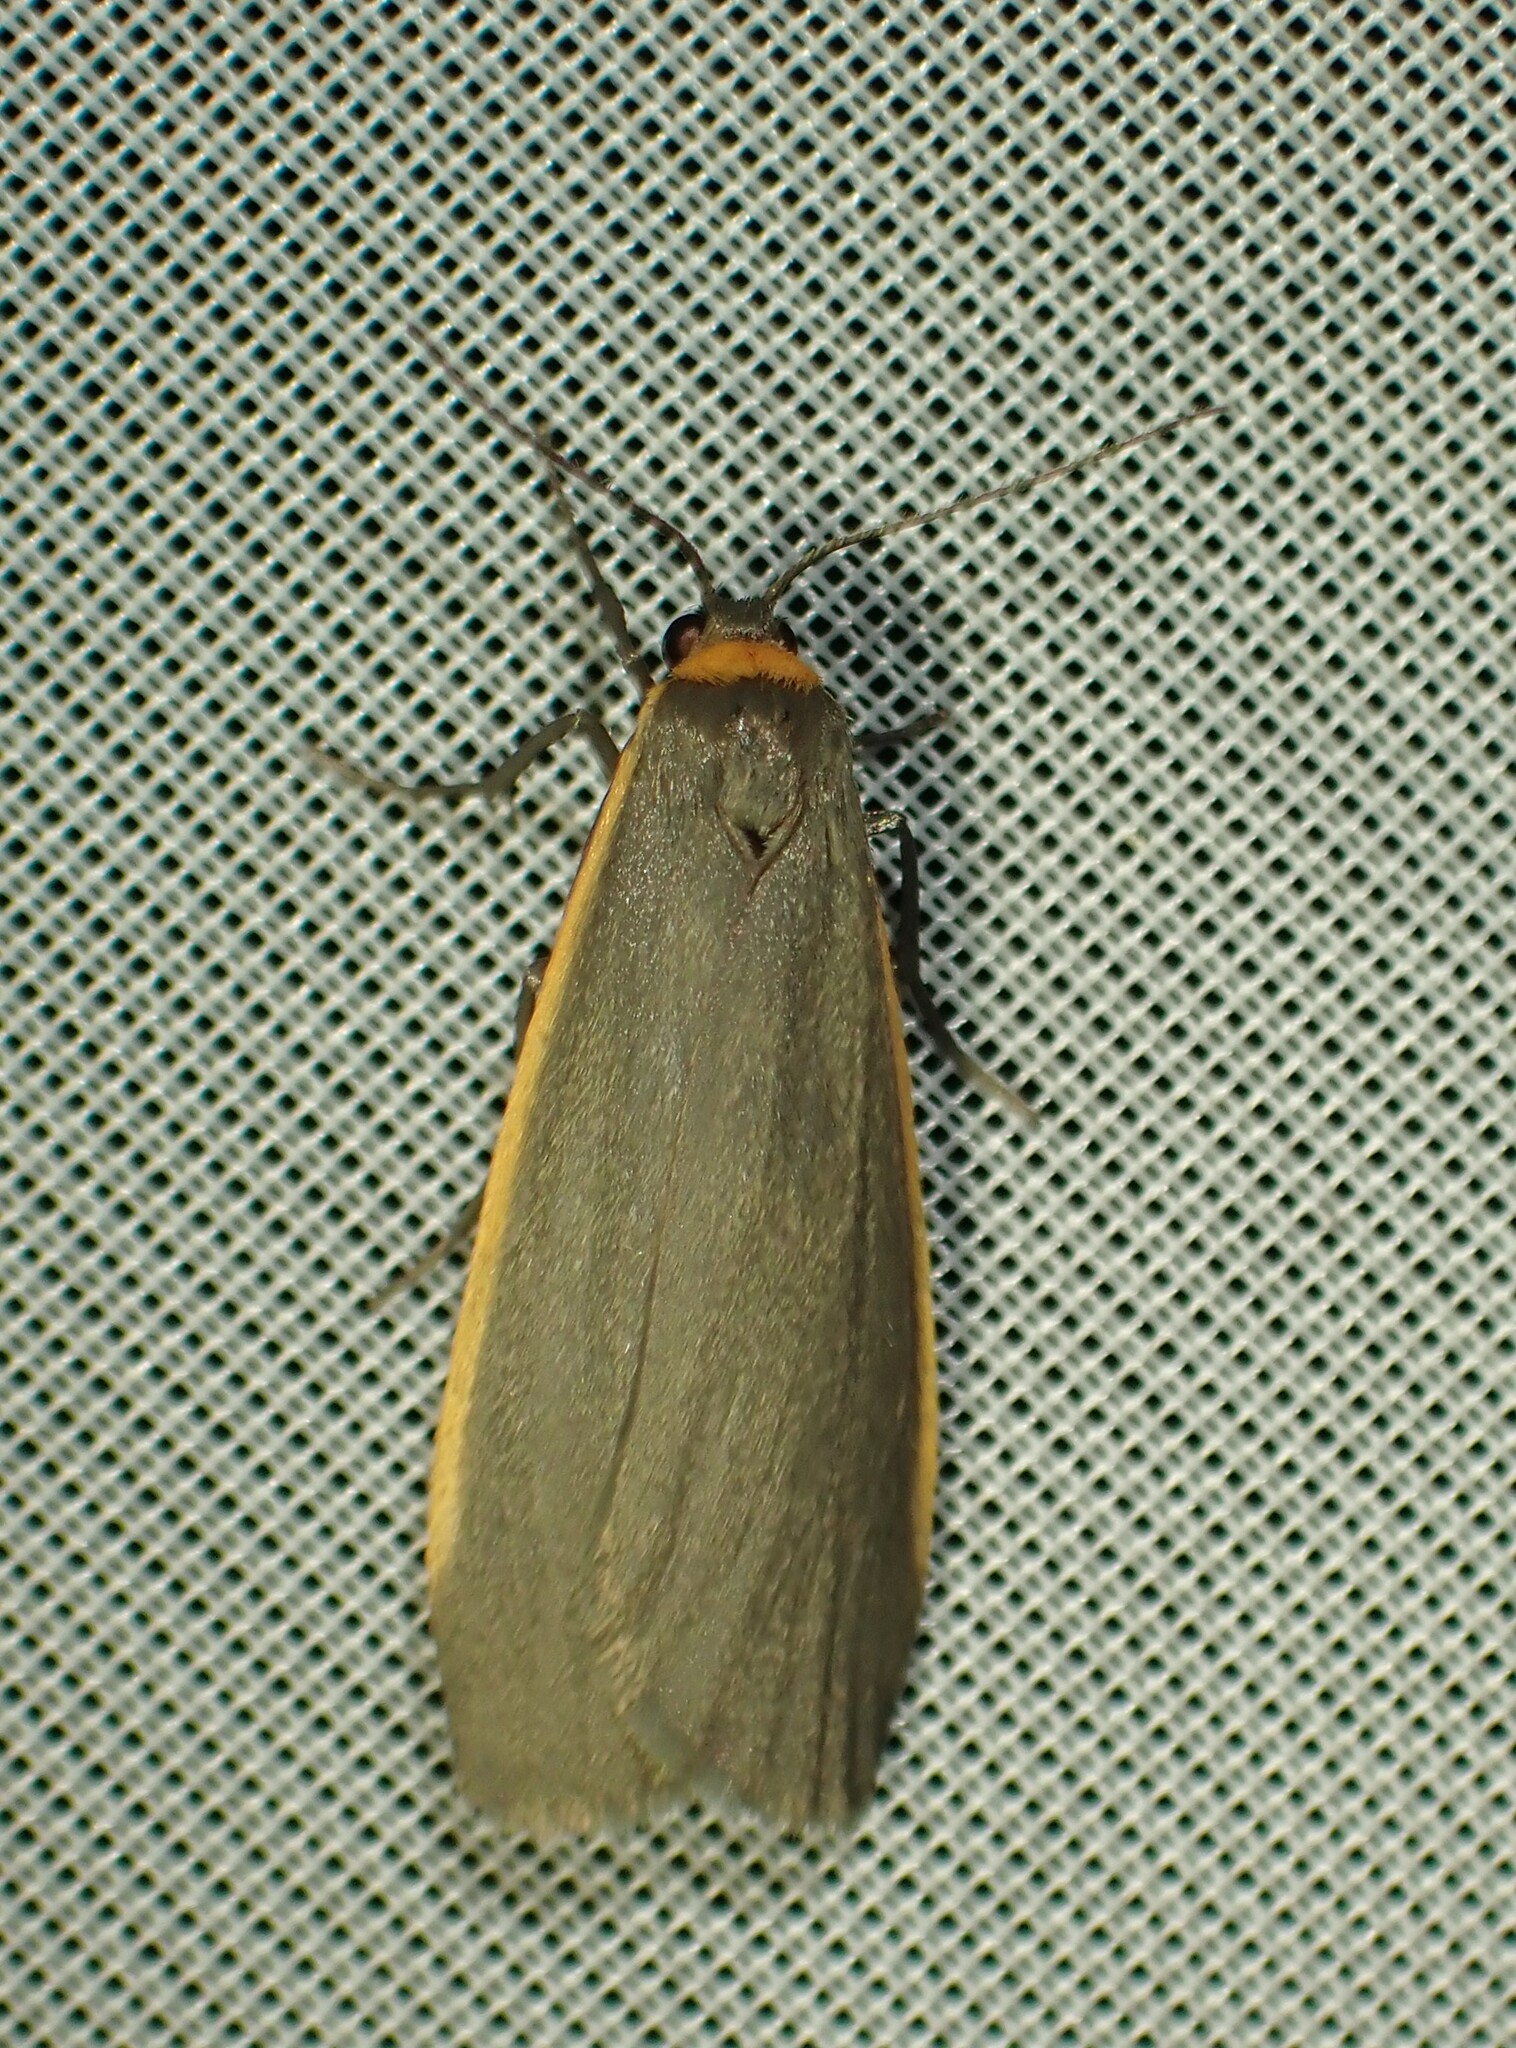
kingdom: Animalia
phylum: Arthropoda
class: Insecta
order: Lepidoptera
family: Erebidae
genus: Manulea
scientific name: Manulea bicolor
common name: Bicolored moth
